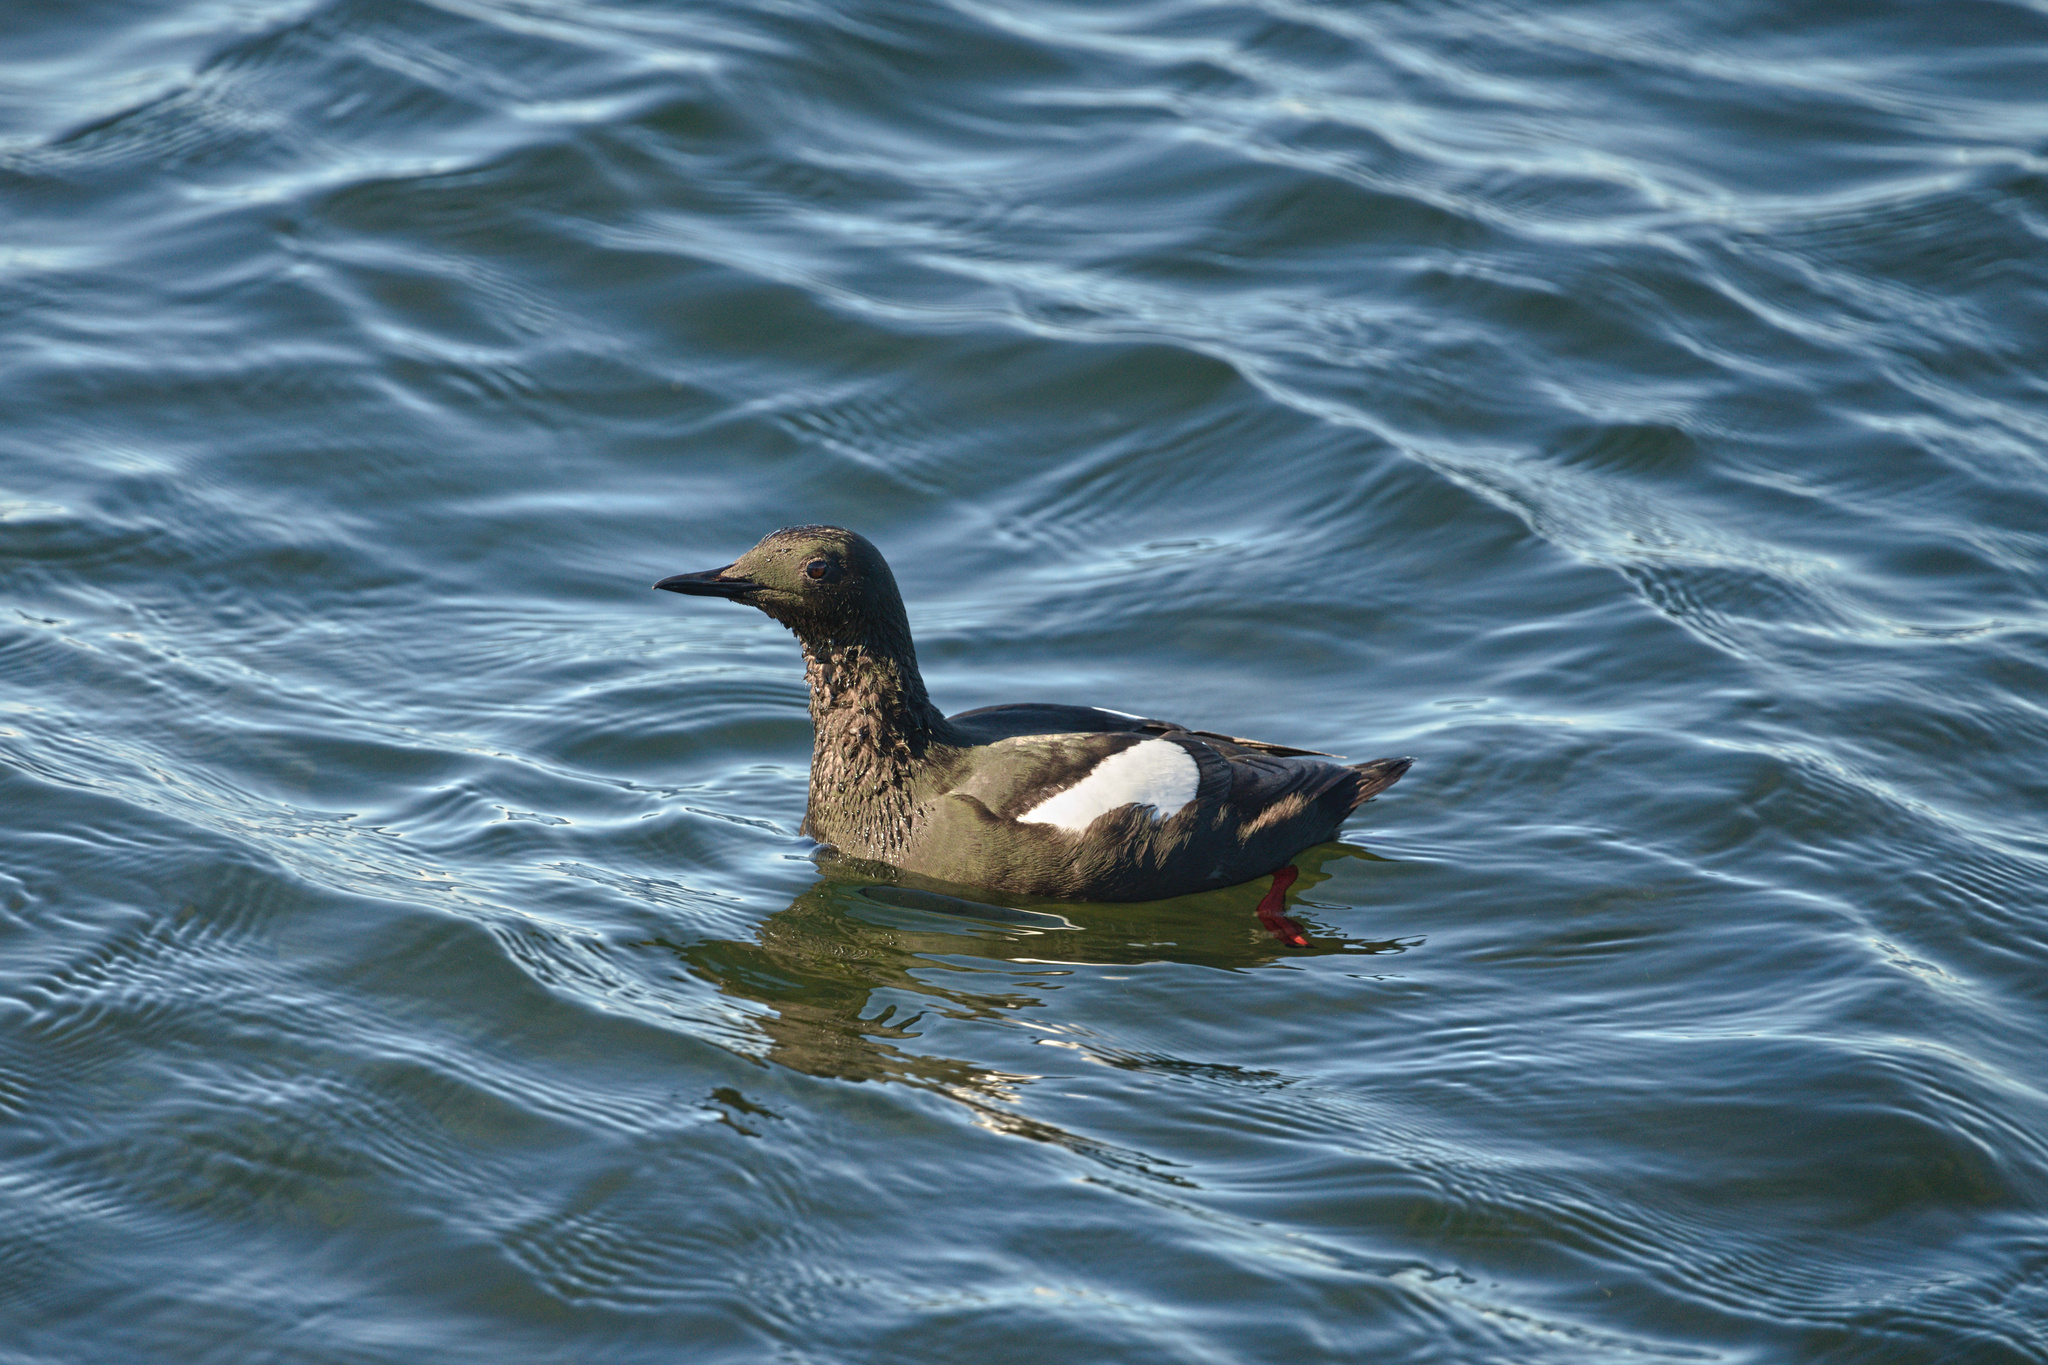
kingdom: Animalia
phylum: Chordata
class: Aves
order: Charadriiformes
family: Alcidae
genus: Cepphus
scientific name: Cepphus grylle
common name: Black guillemot
